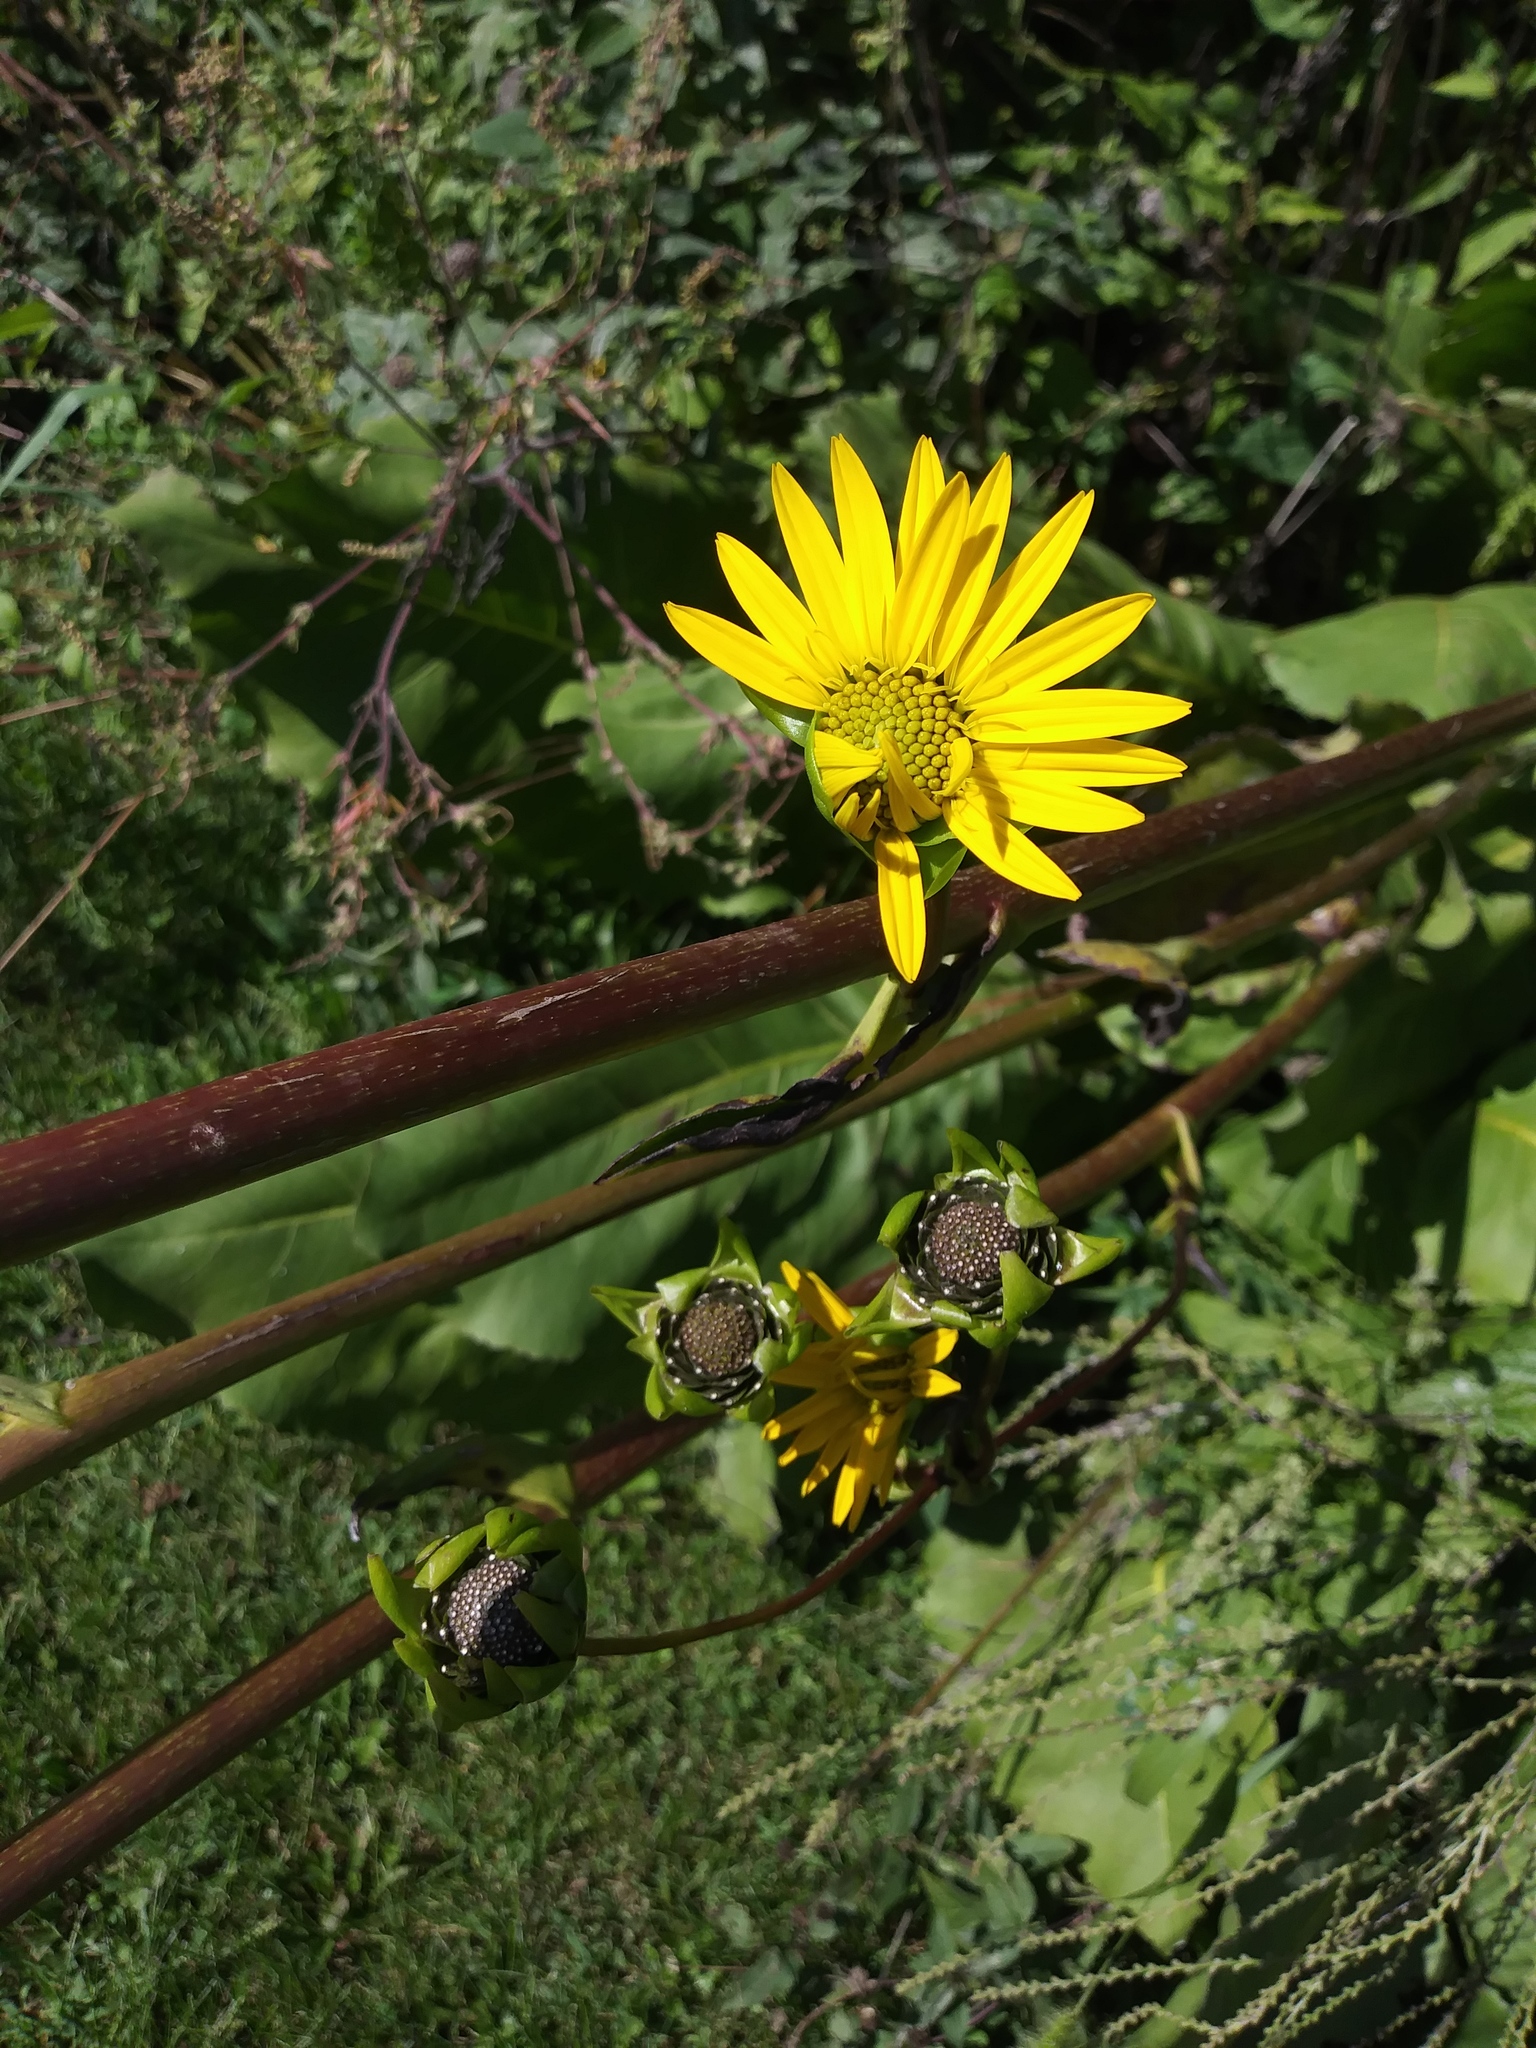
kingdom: Plantae
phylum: Tracheophyta
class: Magnoliopsida
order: Asterales
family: Asteraceae
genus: Silphium
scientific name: Silphium terebinthinaceum
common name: Basal-leaf rosinweed
